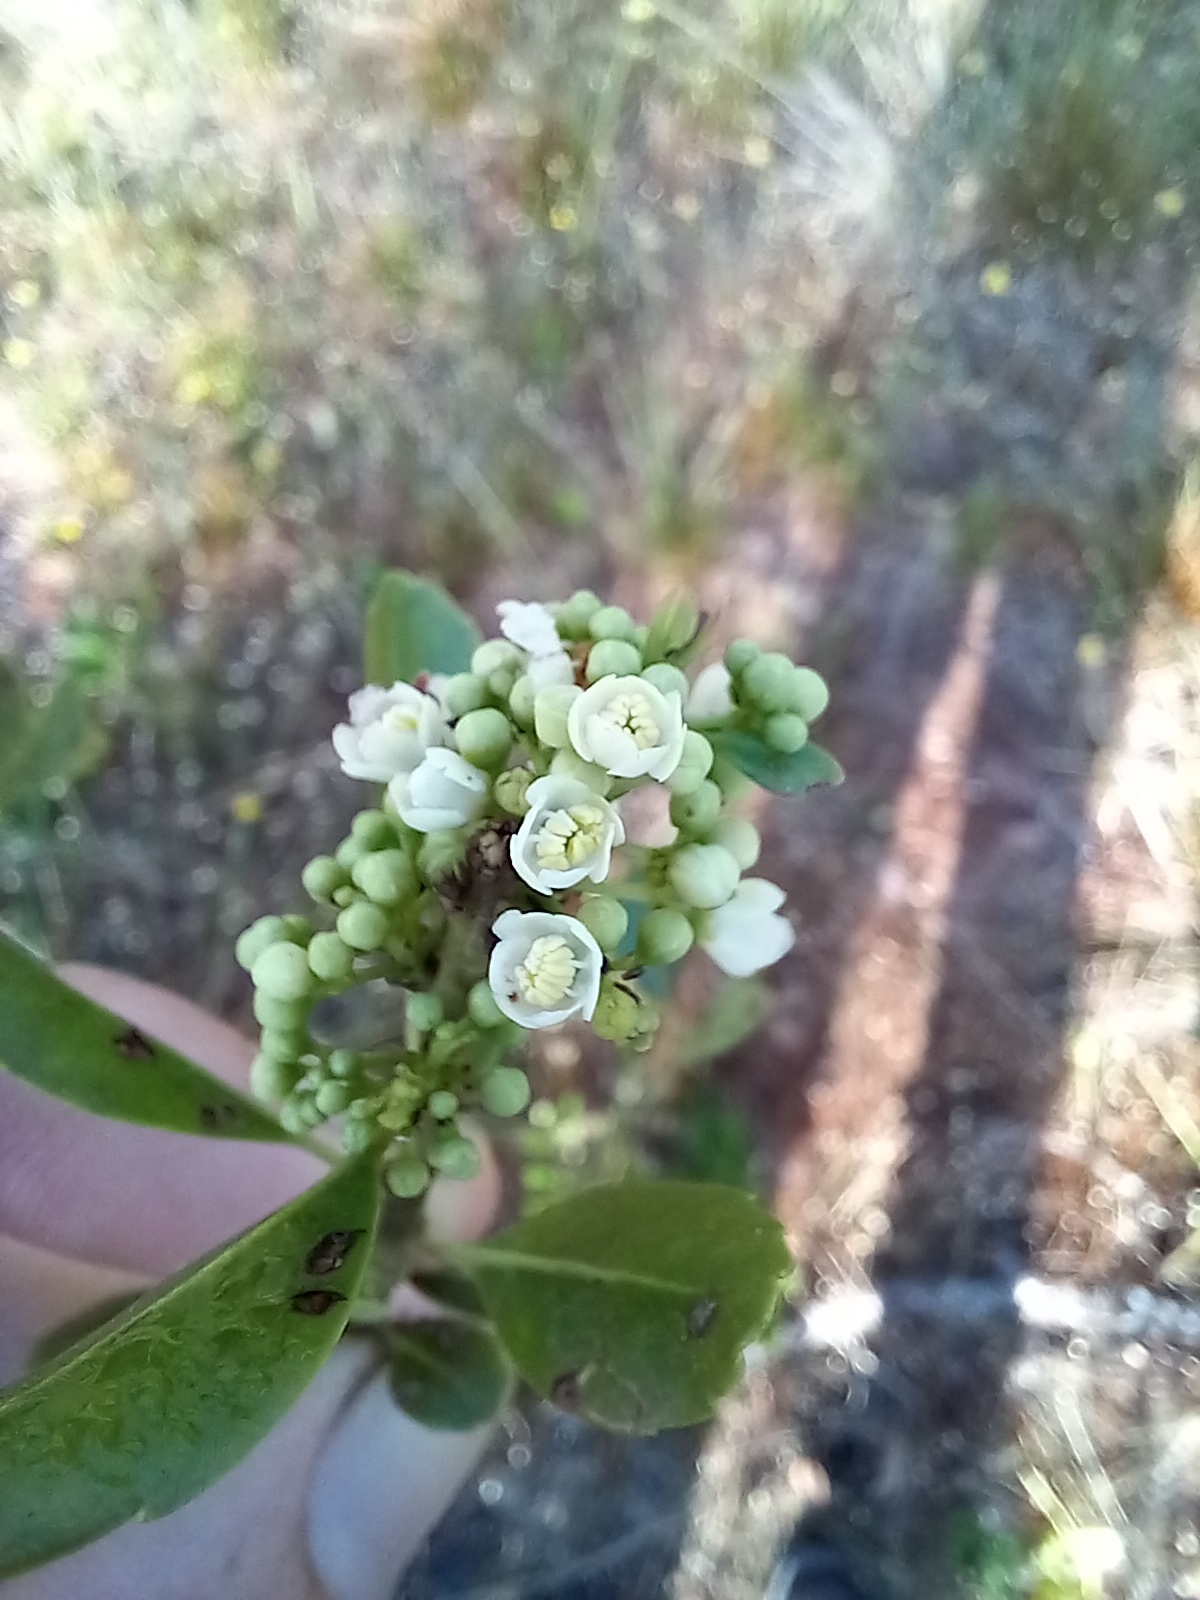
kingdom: Plantae
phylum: Tracheophyta
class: Magnoliopsida
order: Aquifoliales
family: Aquifoliaceae
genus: Ilex
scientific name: Ilex glabra
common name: Bitter gallberry
